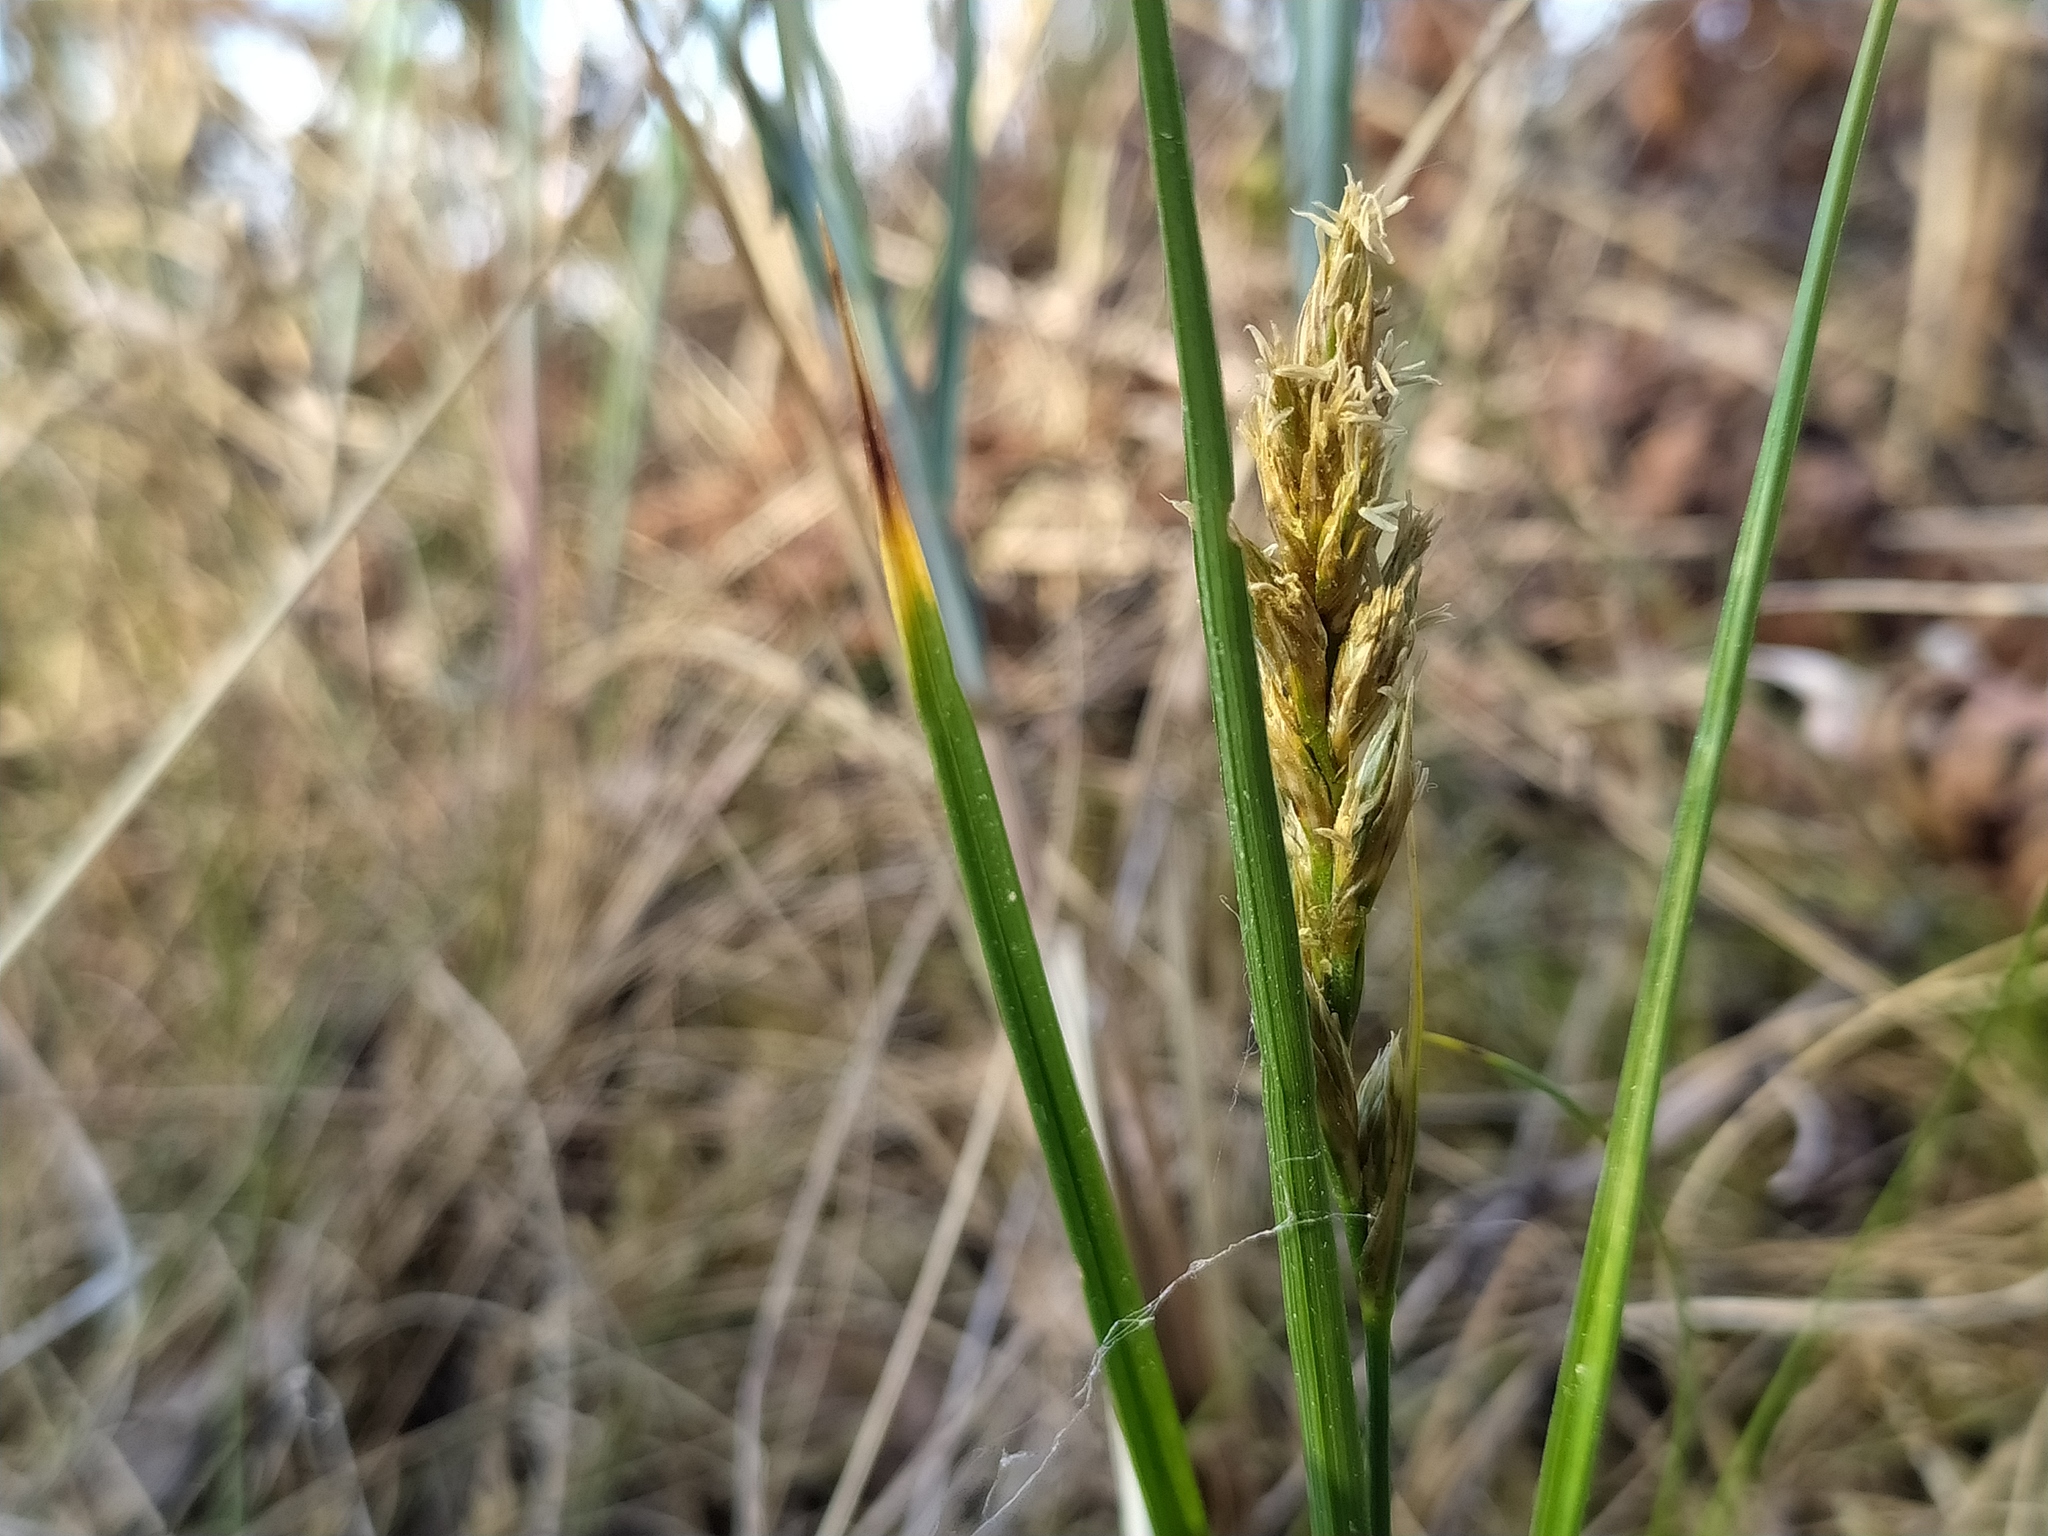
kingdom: Plantae
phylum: Tracheophyta
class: Liliopsida
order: Poales
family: Cyperaceae
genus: Carex
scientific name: Carex arenaria
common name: Sand sedge
